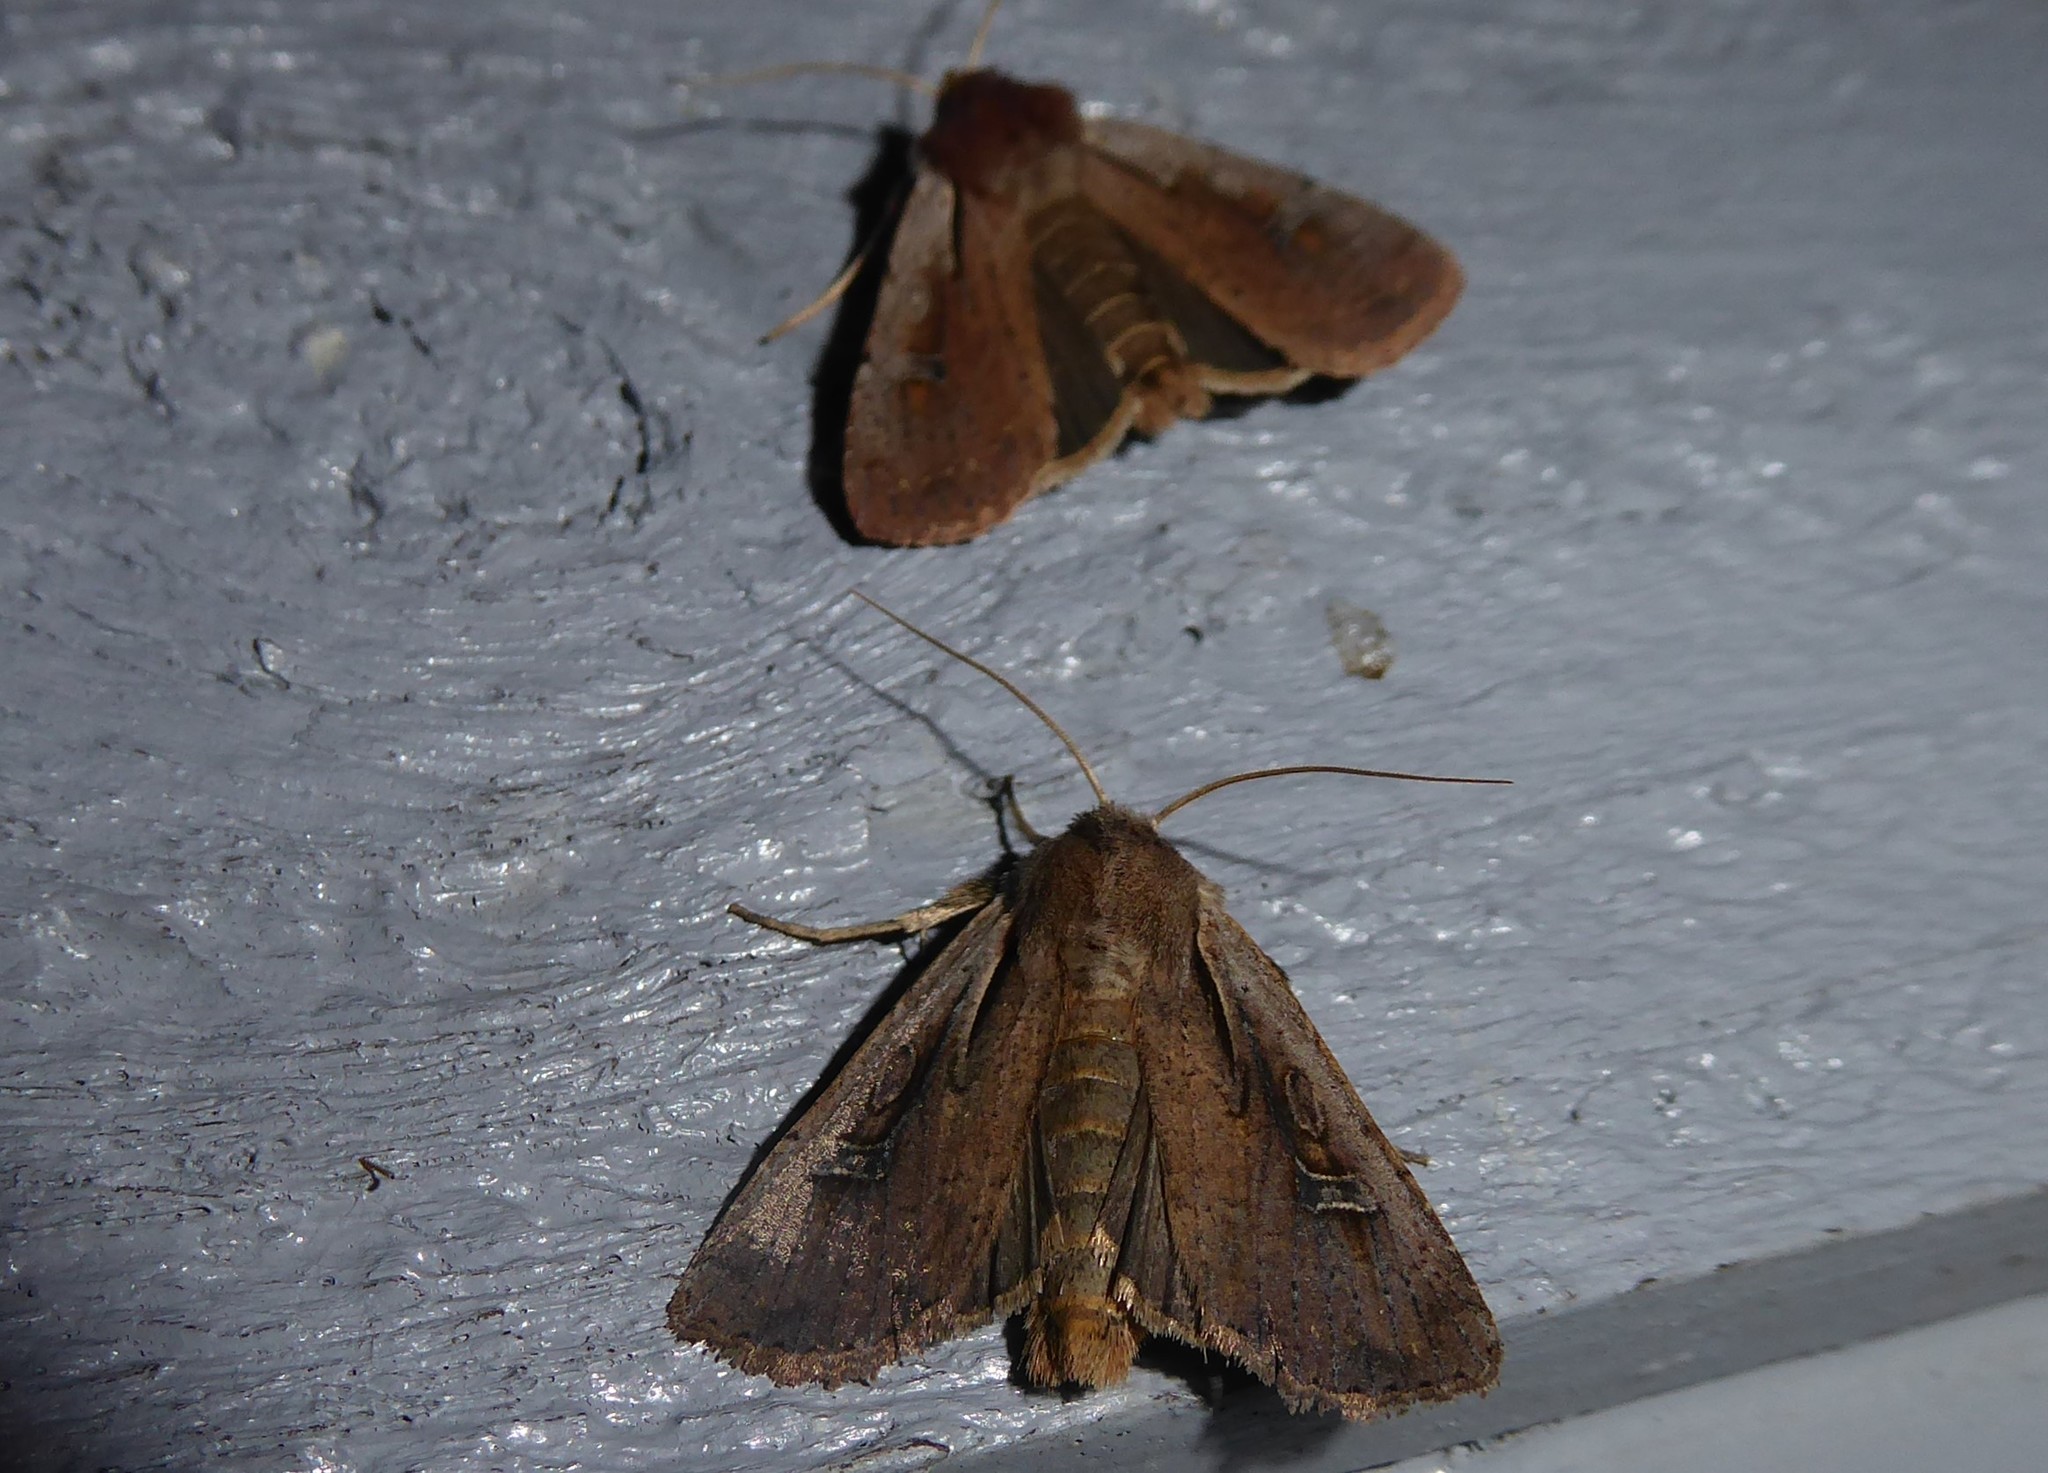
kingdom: Animalia
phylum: Arthropoda
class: Insecta
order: Lepidoptera
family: Noctuidae
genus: Ichneutica
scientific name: Ichneutica atristriga
